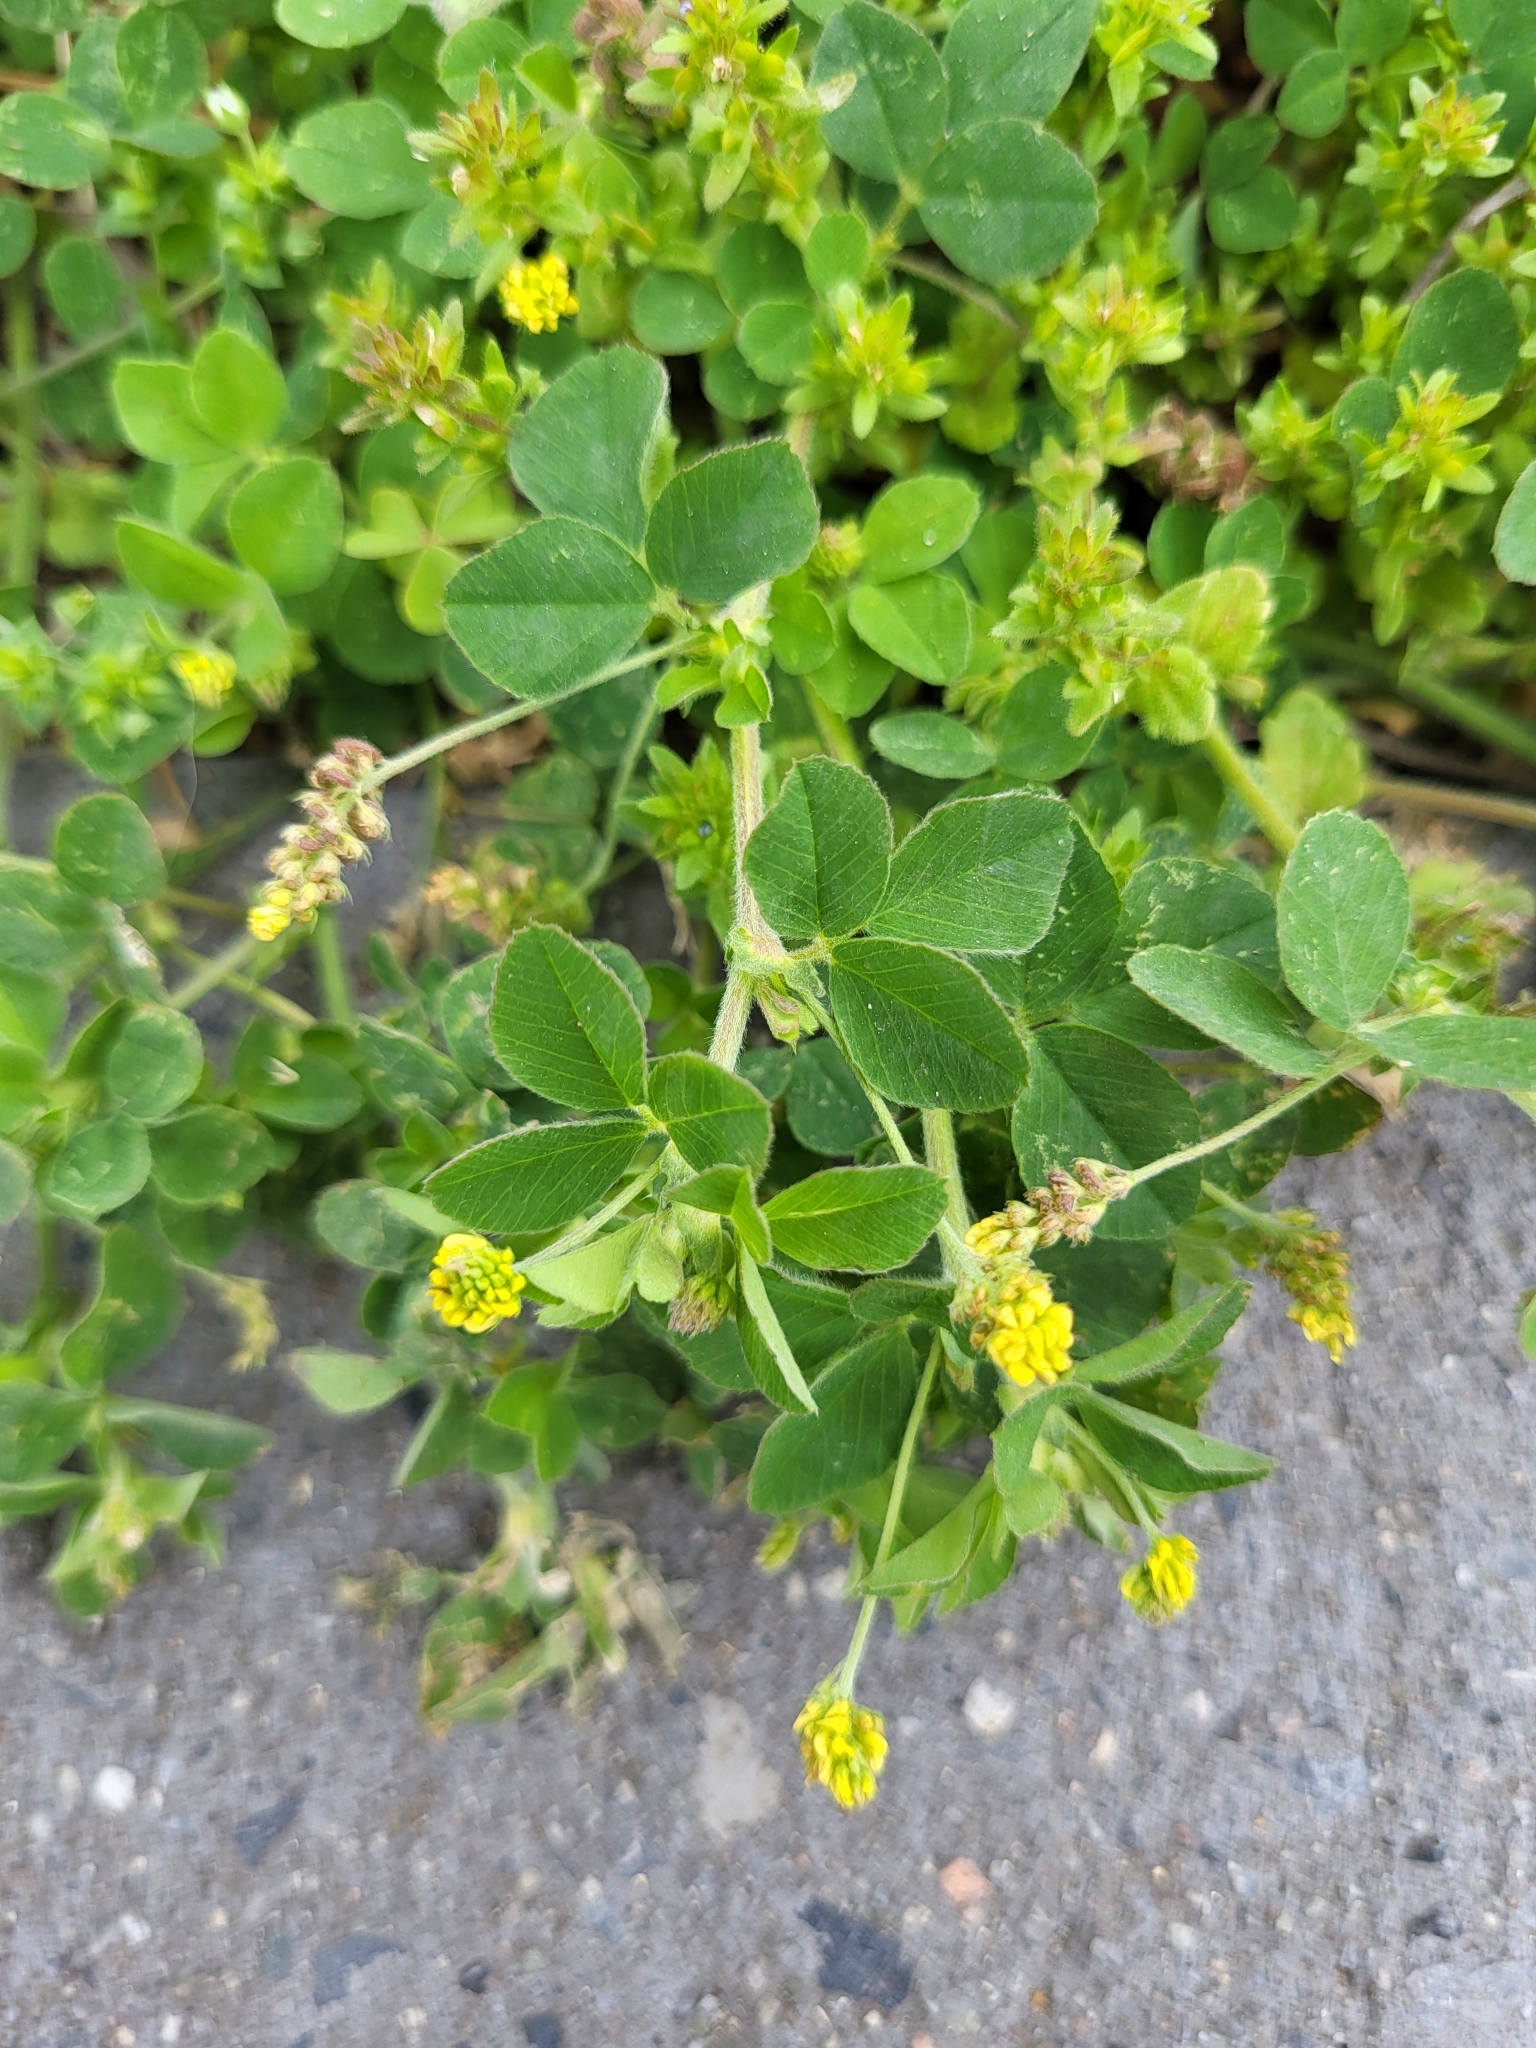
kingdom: Plantae
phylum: Tracheophyta
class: Magnoliopsida
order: Fabales
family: Fabaceae
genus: Medicago
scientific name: Medicago lupulina
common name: Black medick
